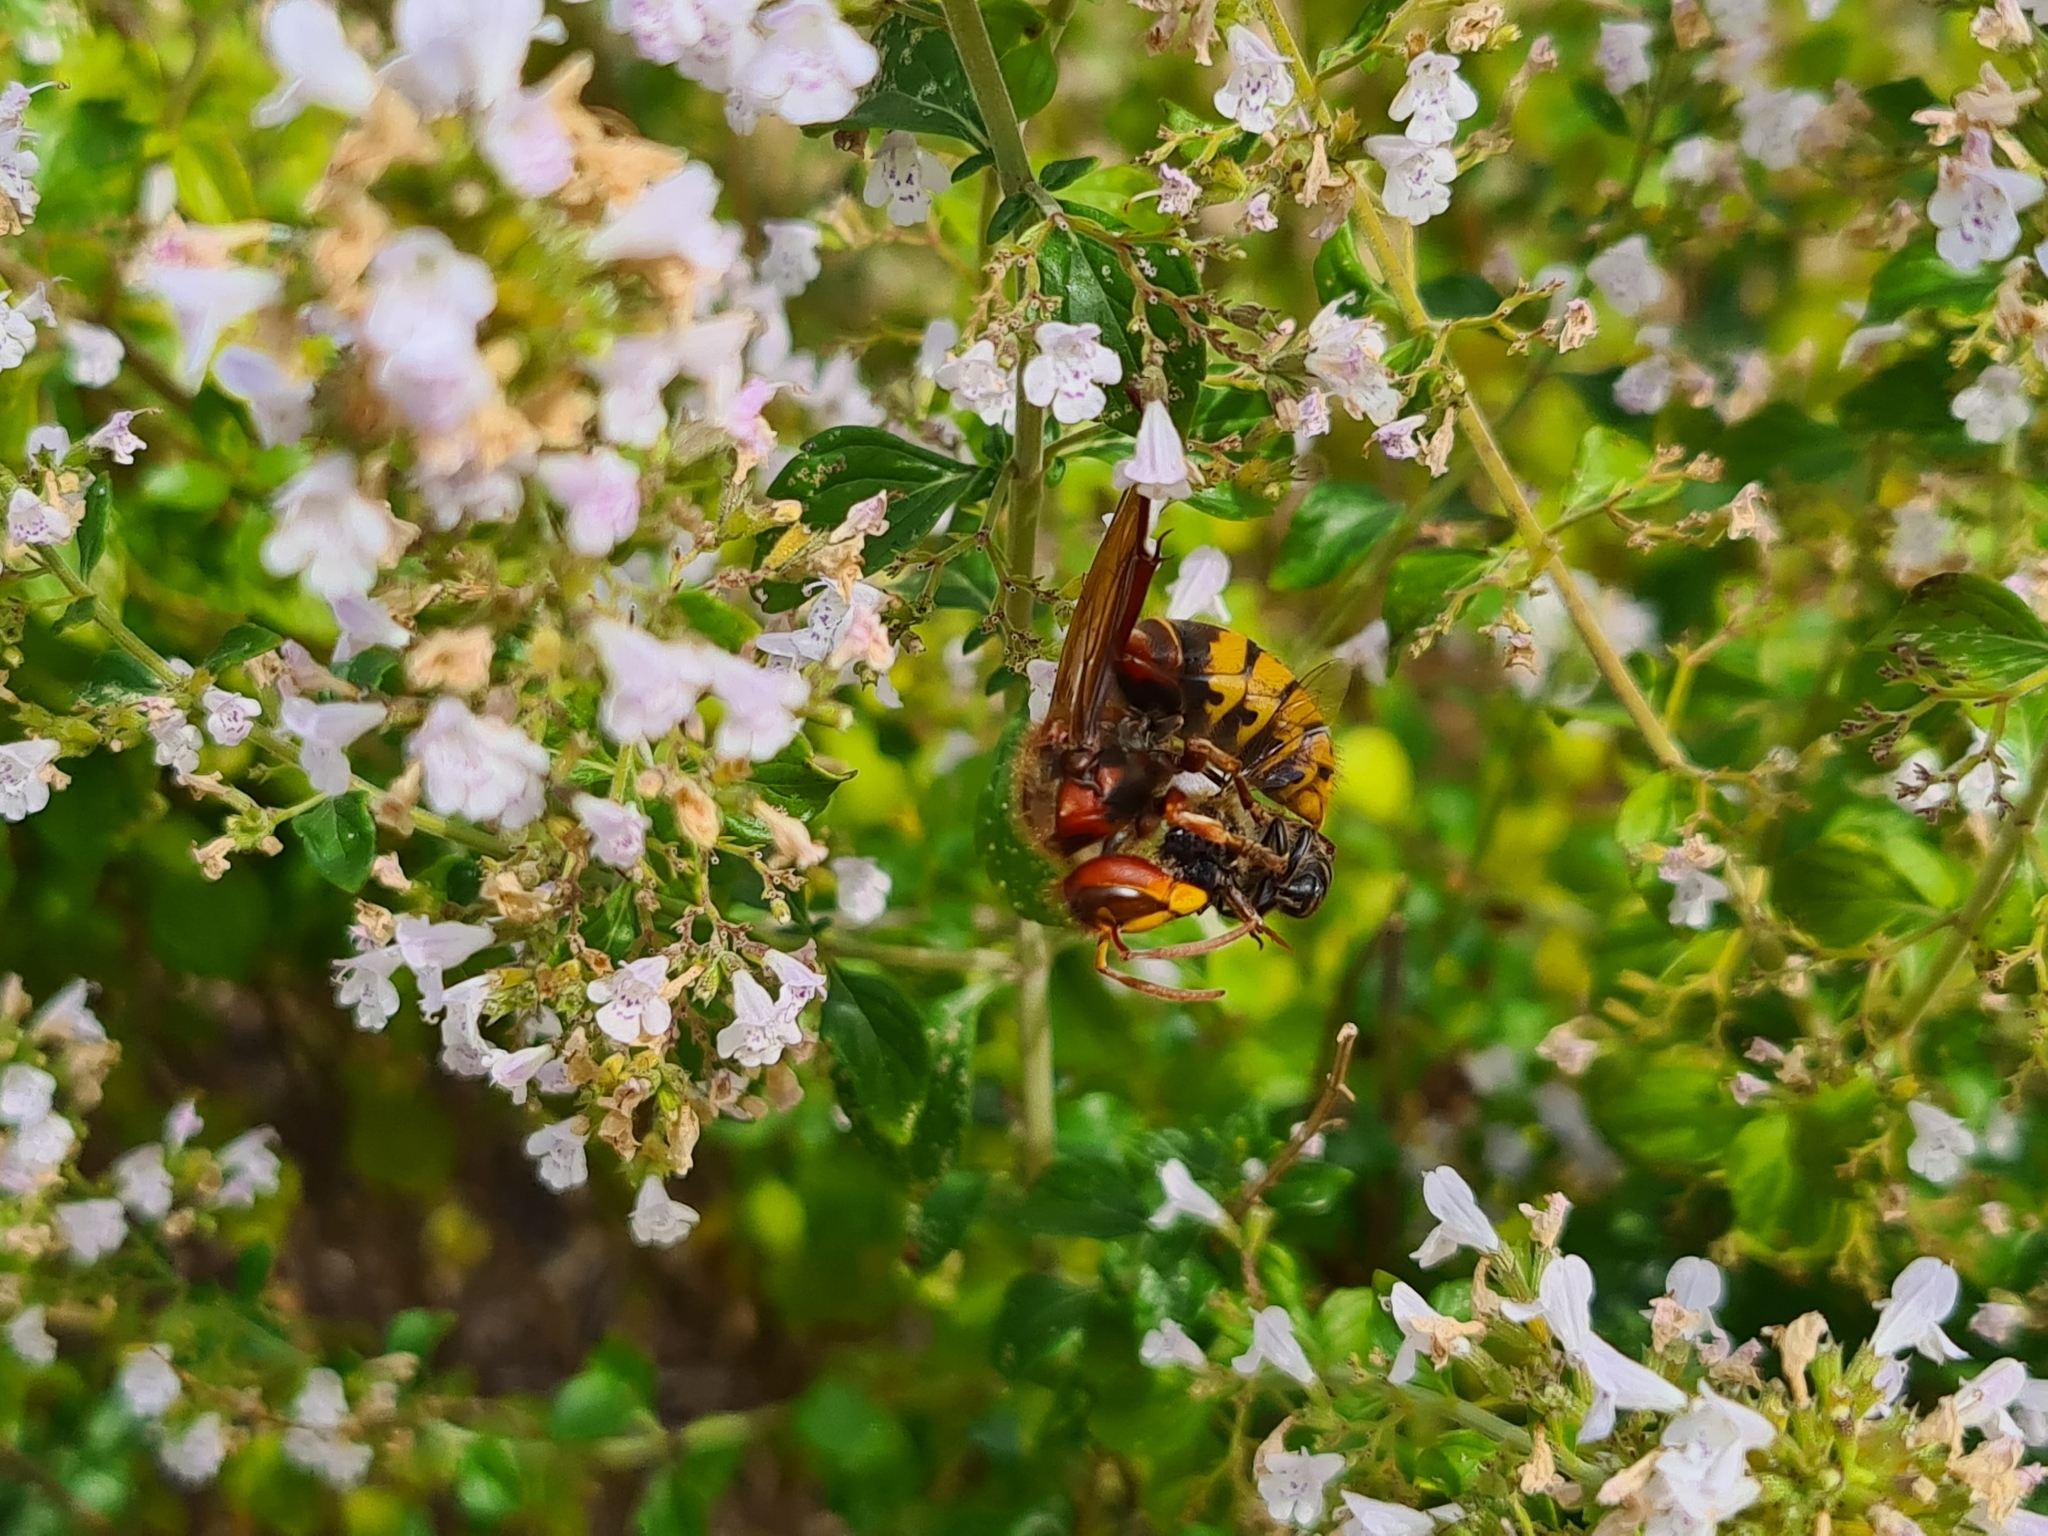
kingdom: Animalia
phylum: Arthropoda
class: Insecta
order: Hymenoptera
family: Vespidae
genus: Vespa
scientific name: Vespa crabro
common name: Hornet
